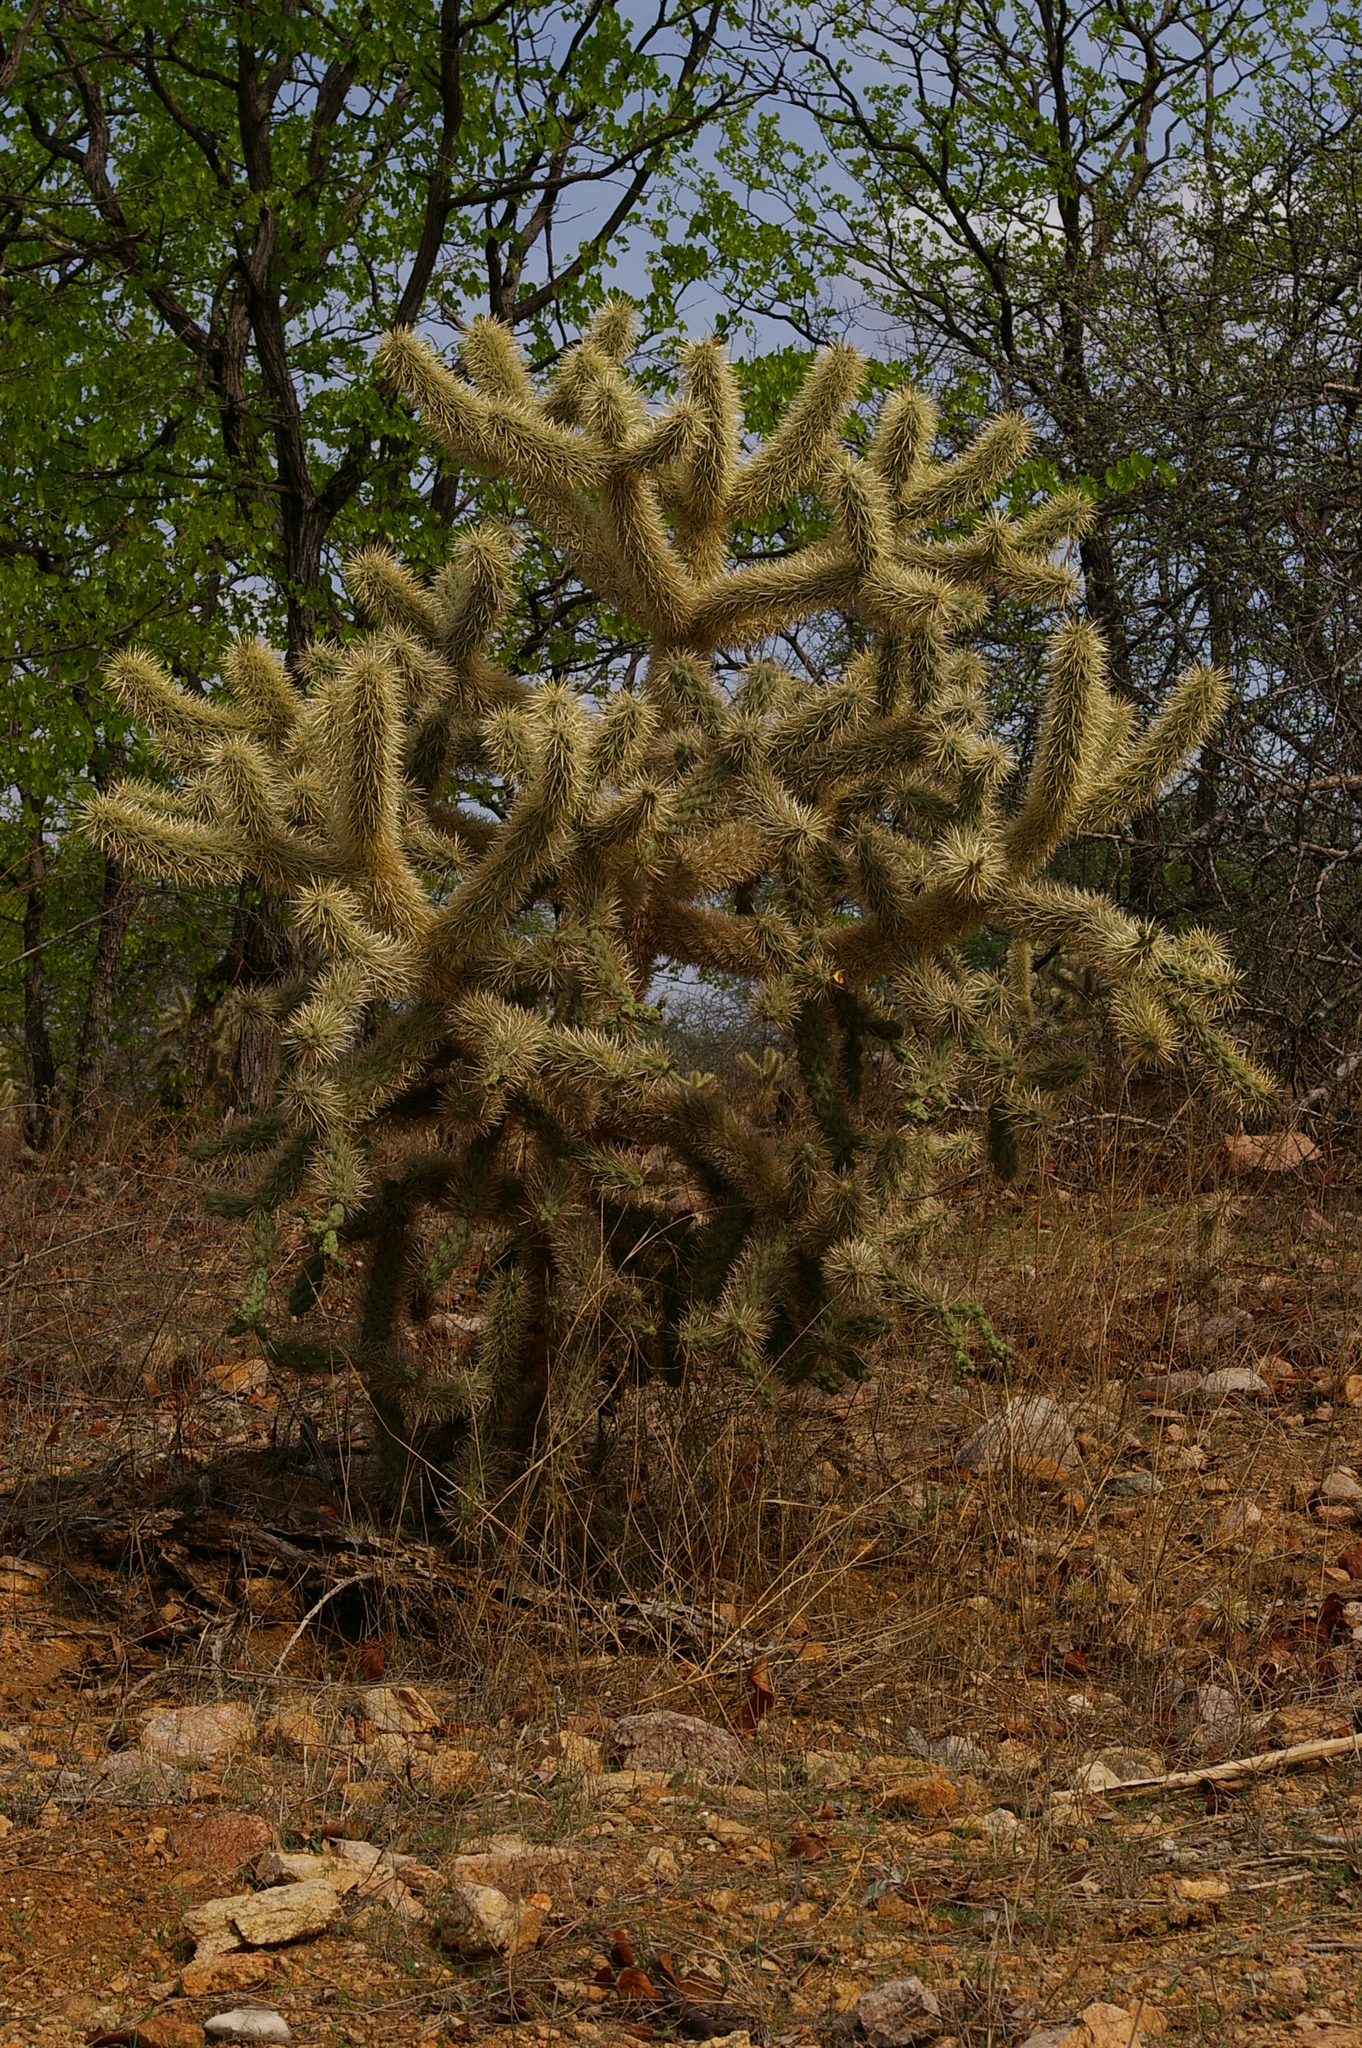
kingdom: Plantae
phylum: Tracheophyta
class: Magnoliopsida
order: Caryophyllales
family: Cactaceae
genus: Cylindropuntia
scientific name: Cylindropuntia fulgida
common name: Jumping cholla
